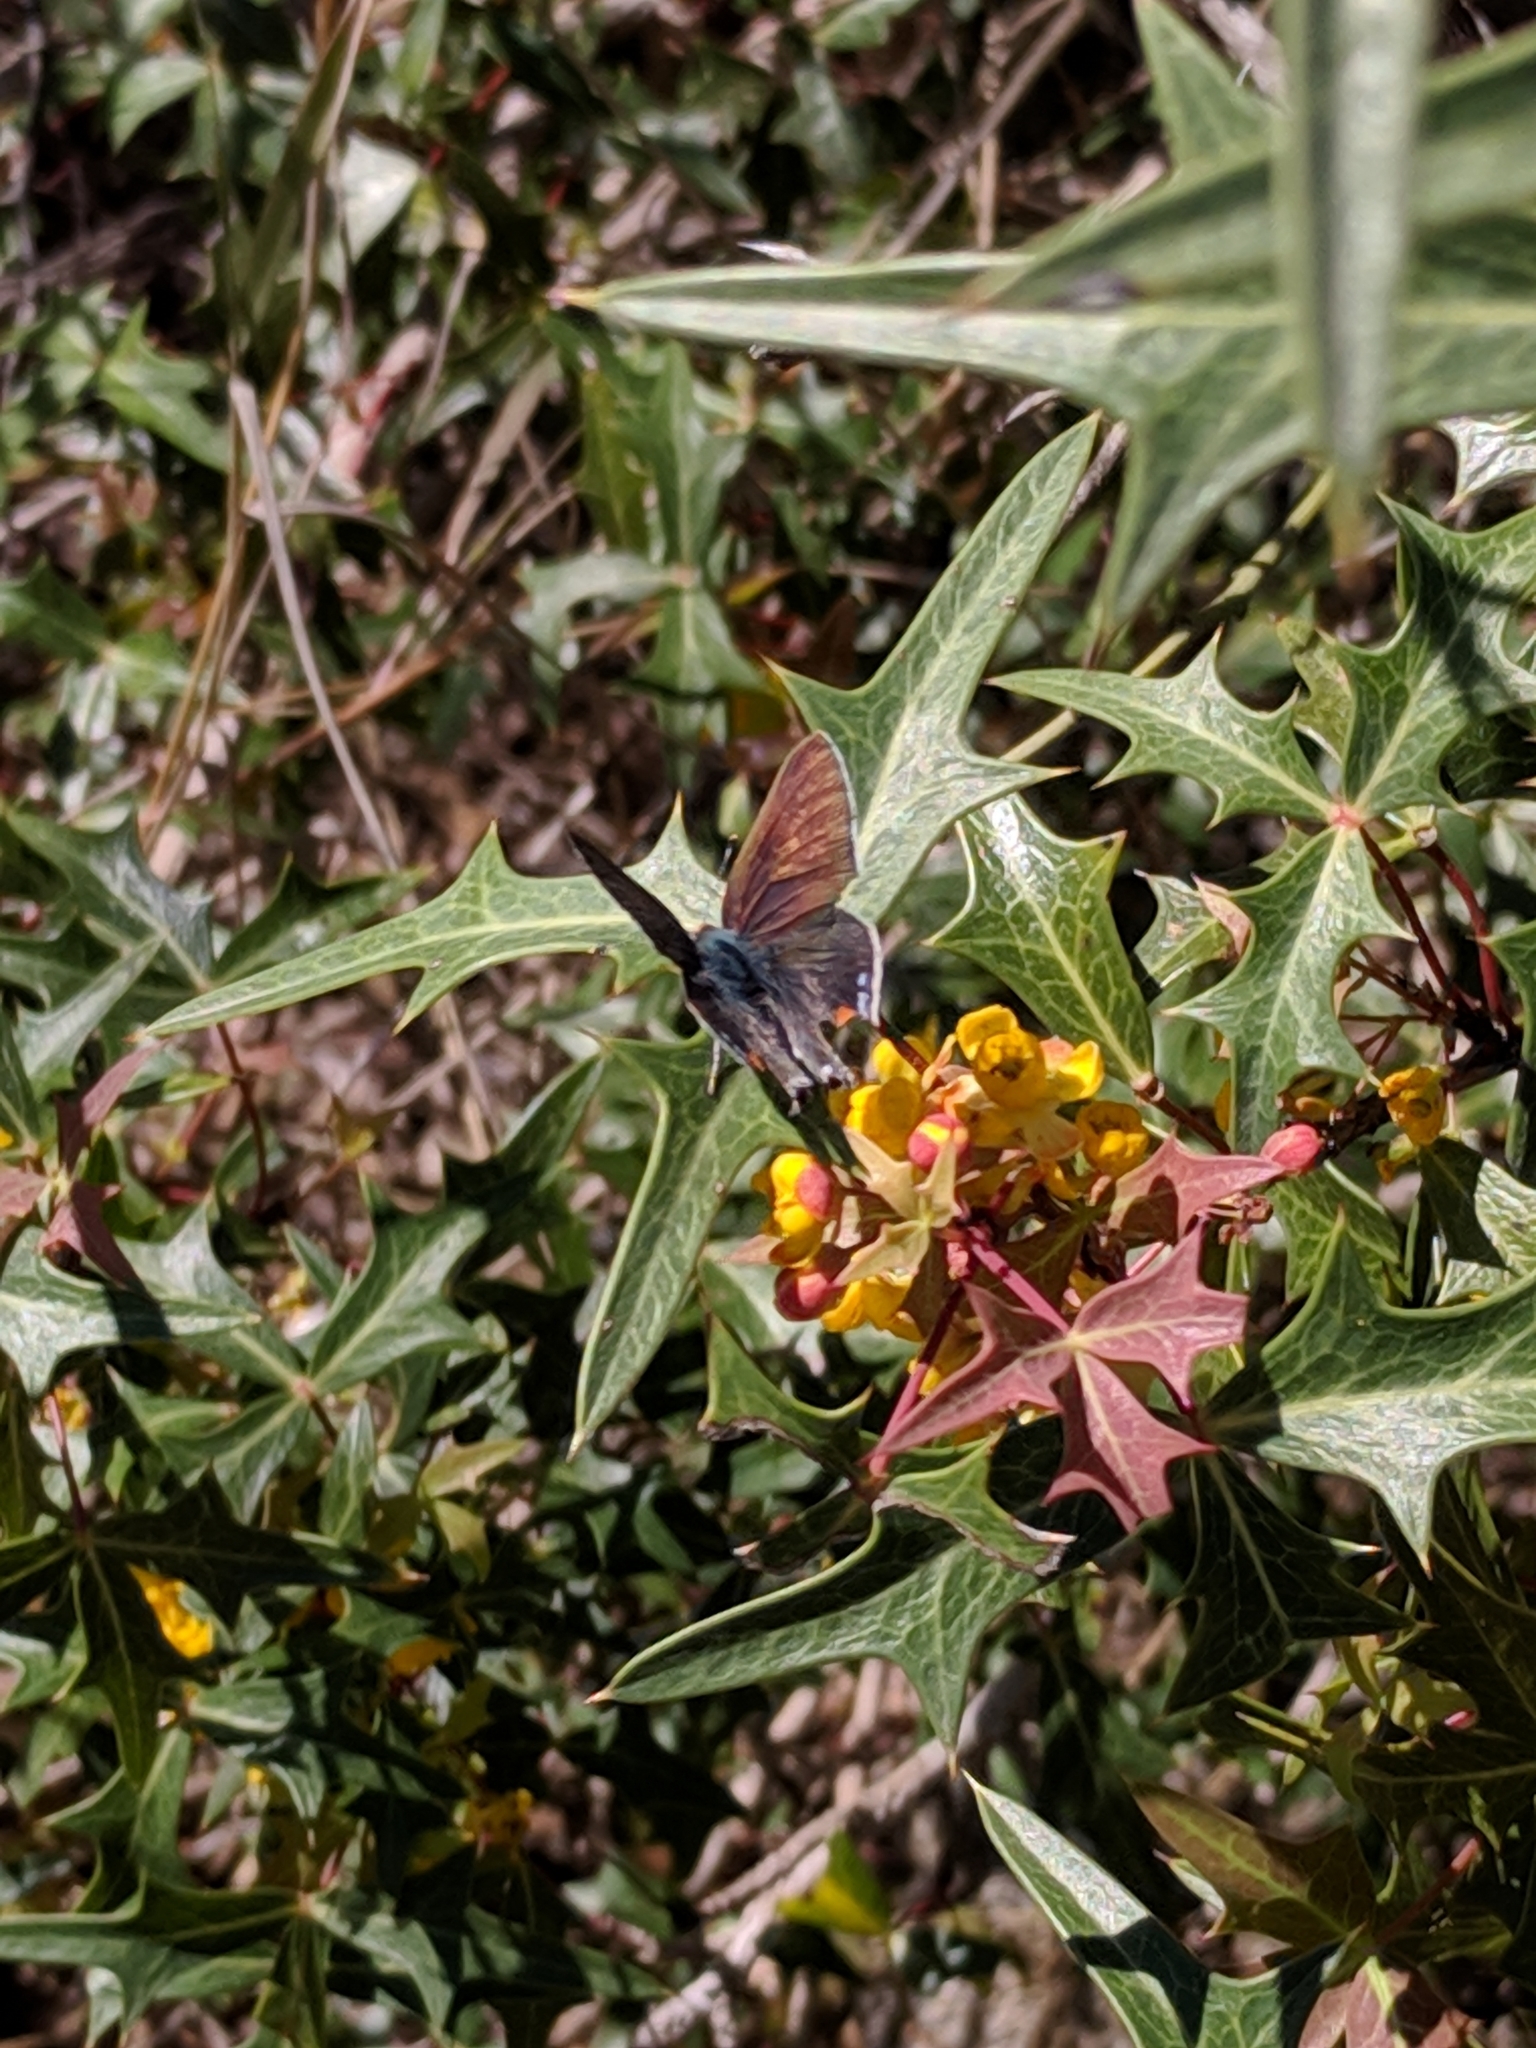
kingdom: Animalia
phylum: Arthropoda
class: Insecta
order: Lepidoptera
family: Lycaenidae
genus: Strymon
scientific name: Strymon melinus
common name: Gray hairstreak
